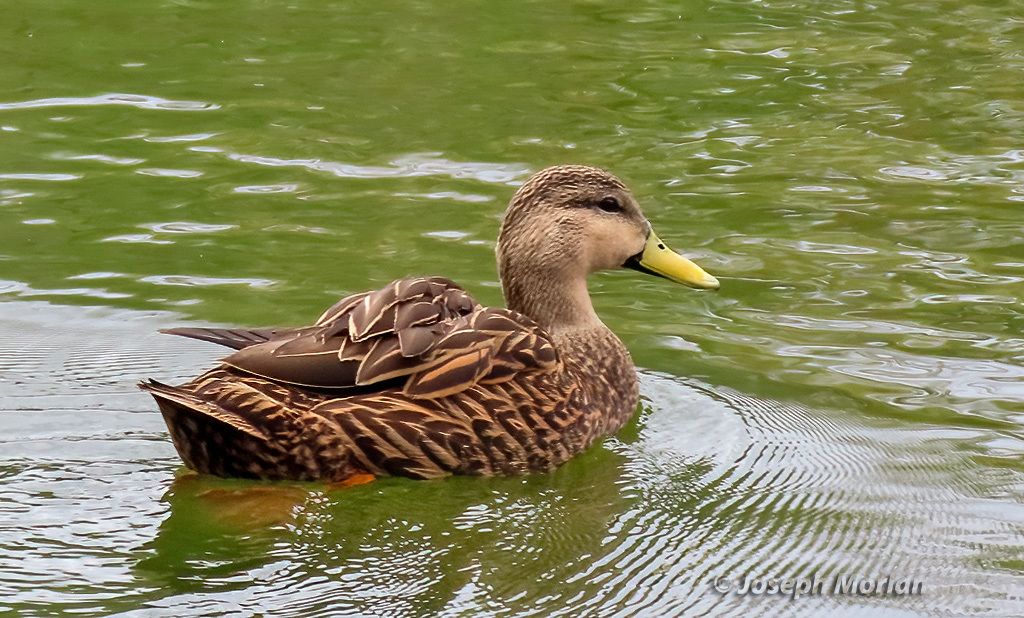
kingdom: Animalia
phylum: Chordata
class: Aves
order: Anseriformes
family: Anatidae
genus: Anas
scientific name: Anas fulvigula
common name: Mottled duck
